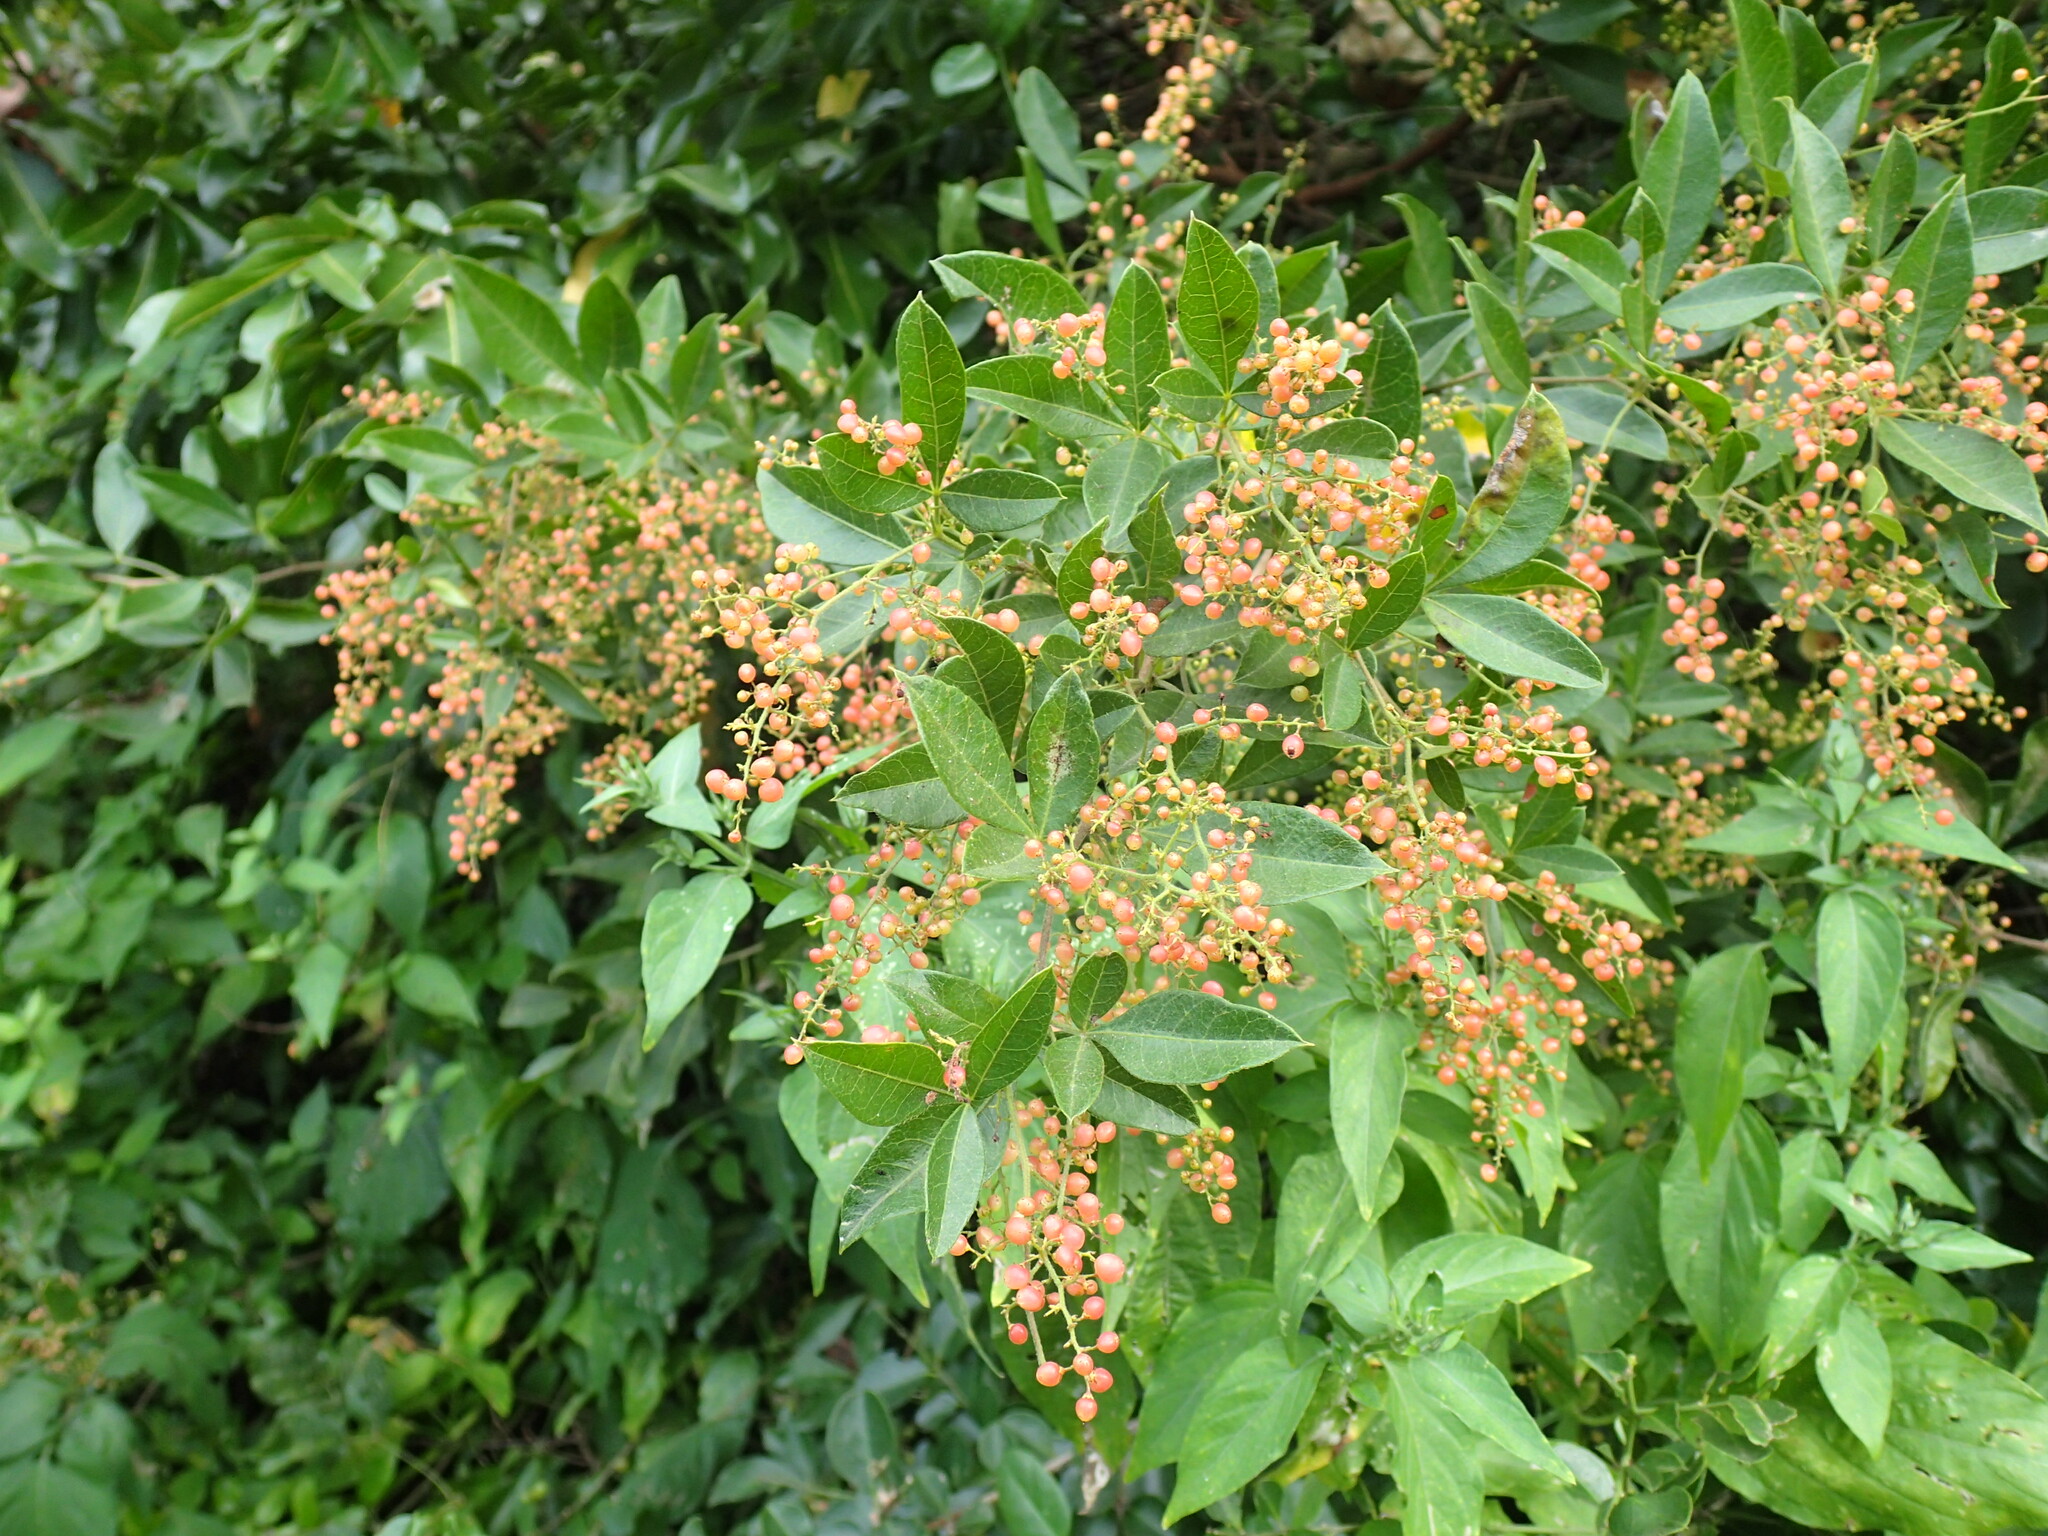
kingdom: Plantae
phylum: Tracheophyta
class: Magnoliopsida
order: Sapindales
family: Anacardiaceae
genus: Searsia
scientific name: Searsia pyroides
